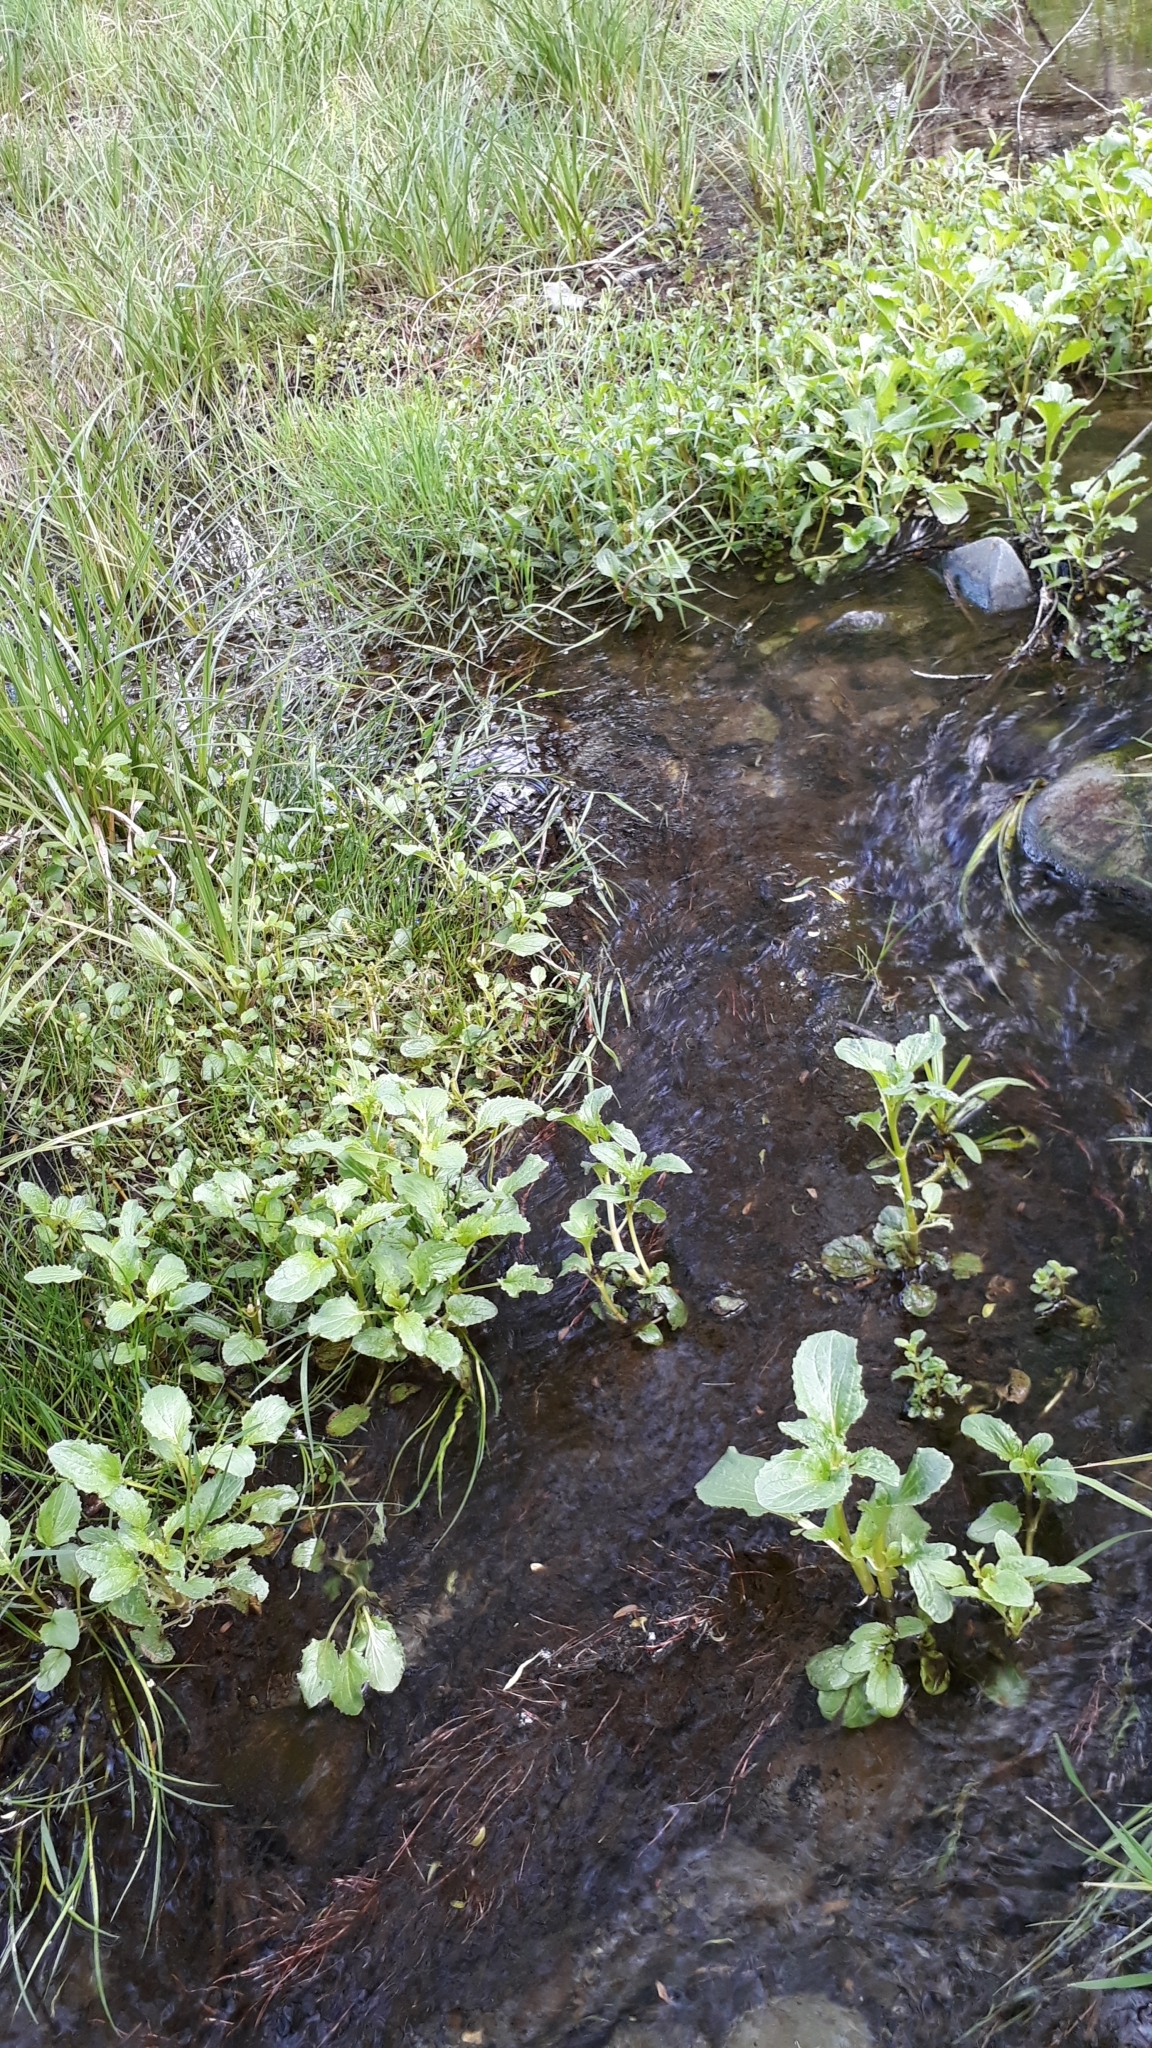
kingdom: Plantae
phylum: Tracheophyta
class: Magnoliopsida
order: Lamiales
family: Phrymaceae
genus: Erythranthe
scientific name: Erythranthe guttata
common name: Monkeyflower
